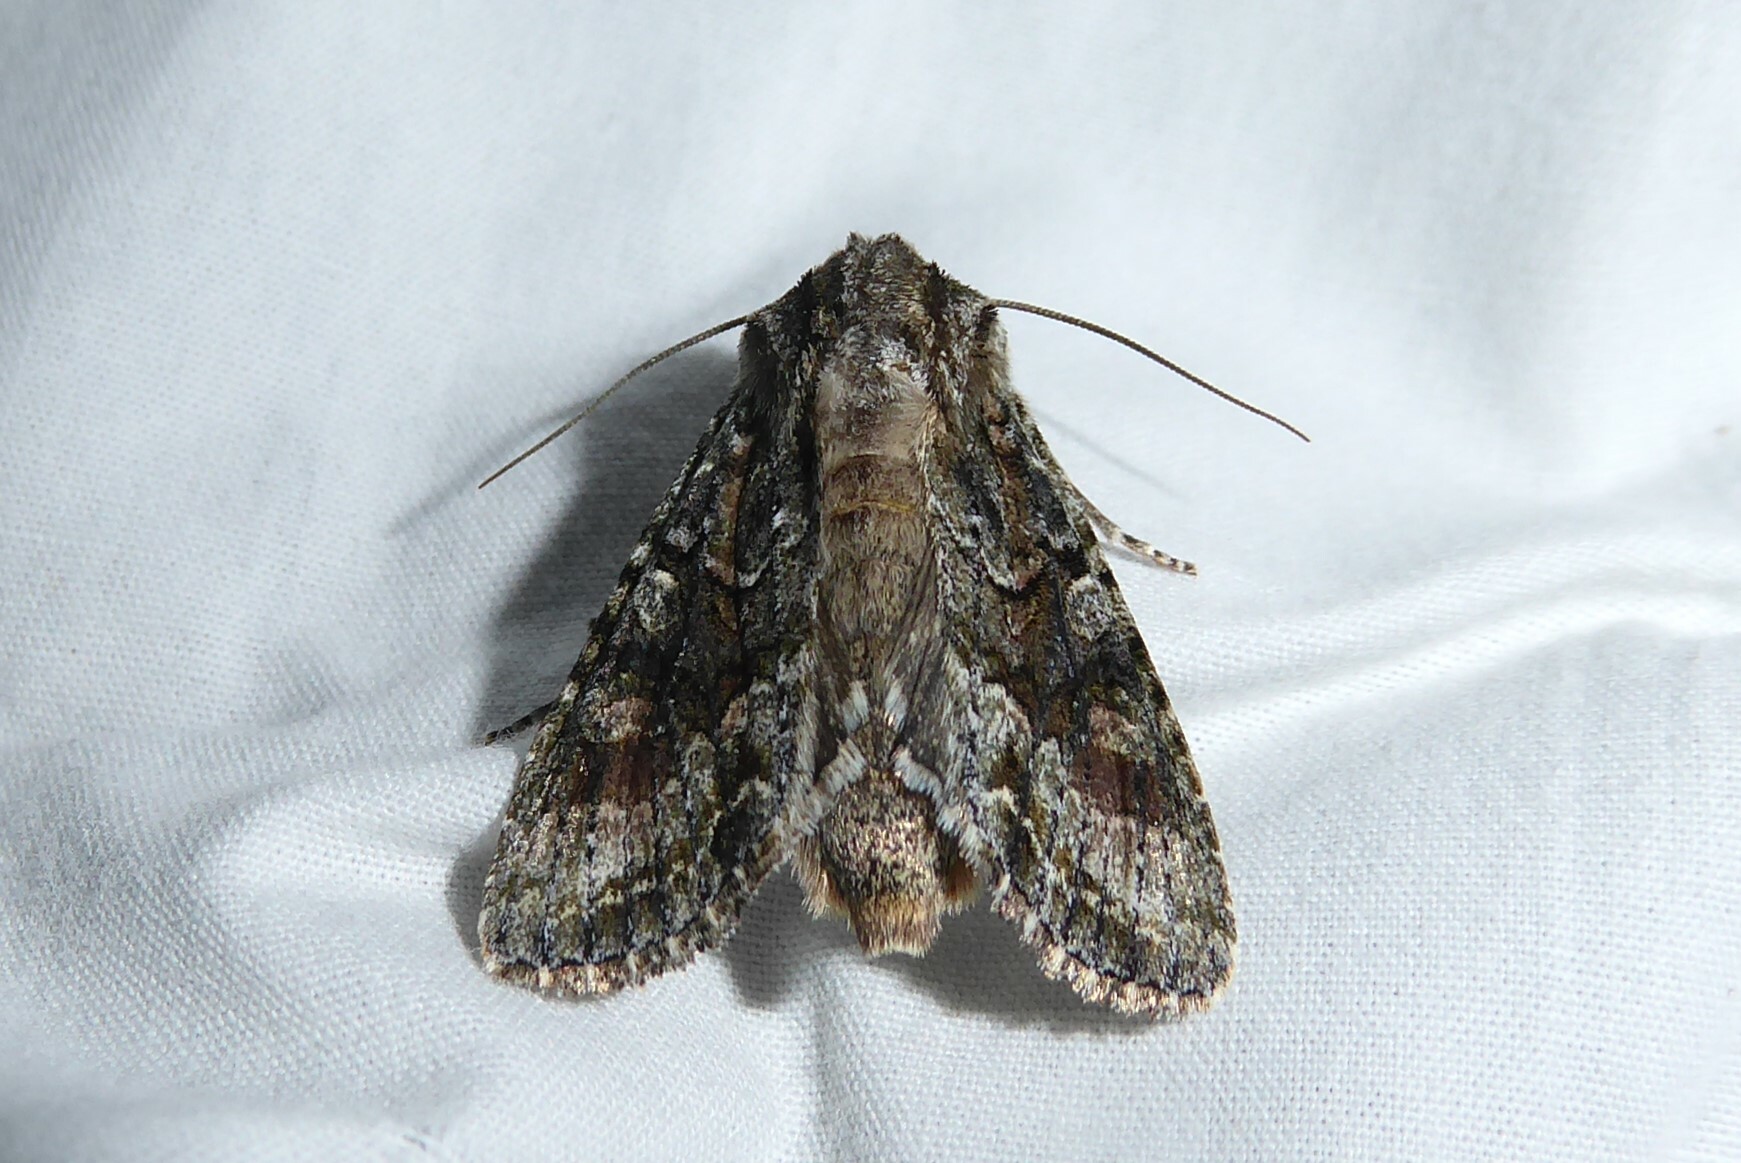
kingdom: Animalia
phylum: Arthropoda
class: Insecta
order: Lepidoptera
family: Noctuidae
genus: Ichneutica
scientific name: Ichneutica mutans
